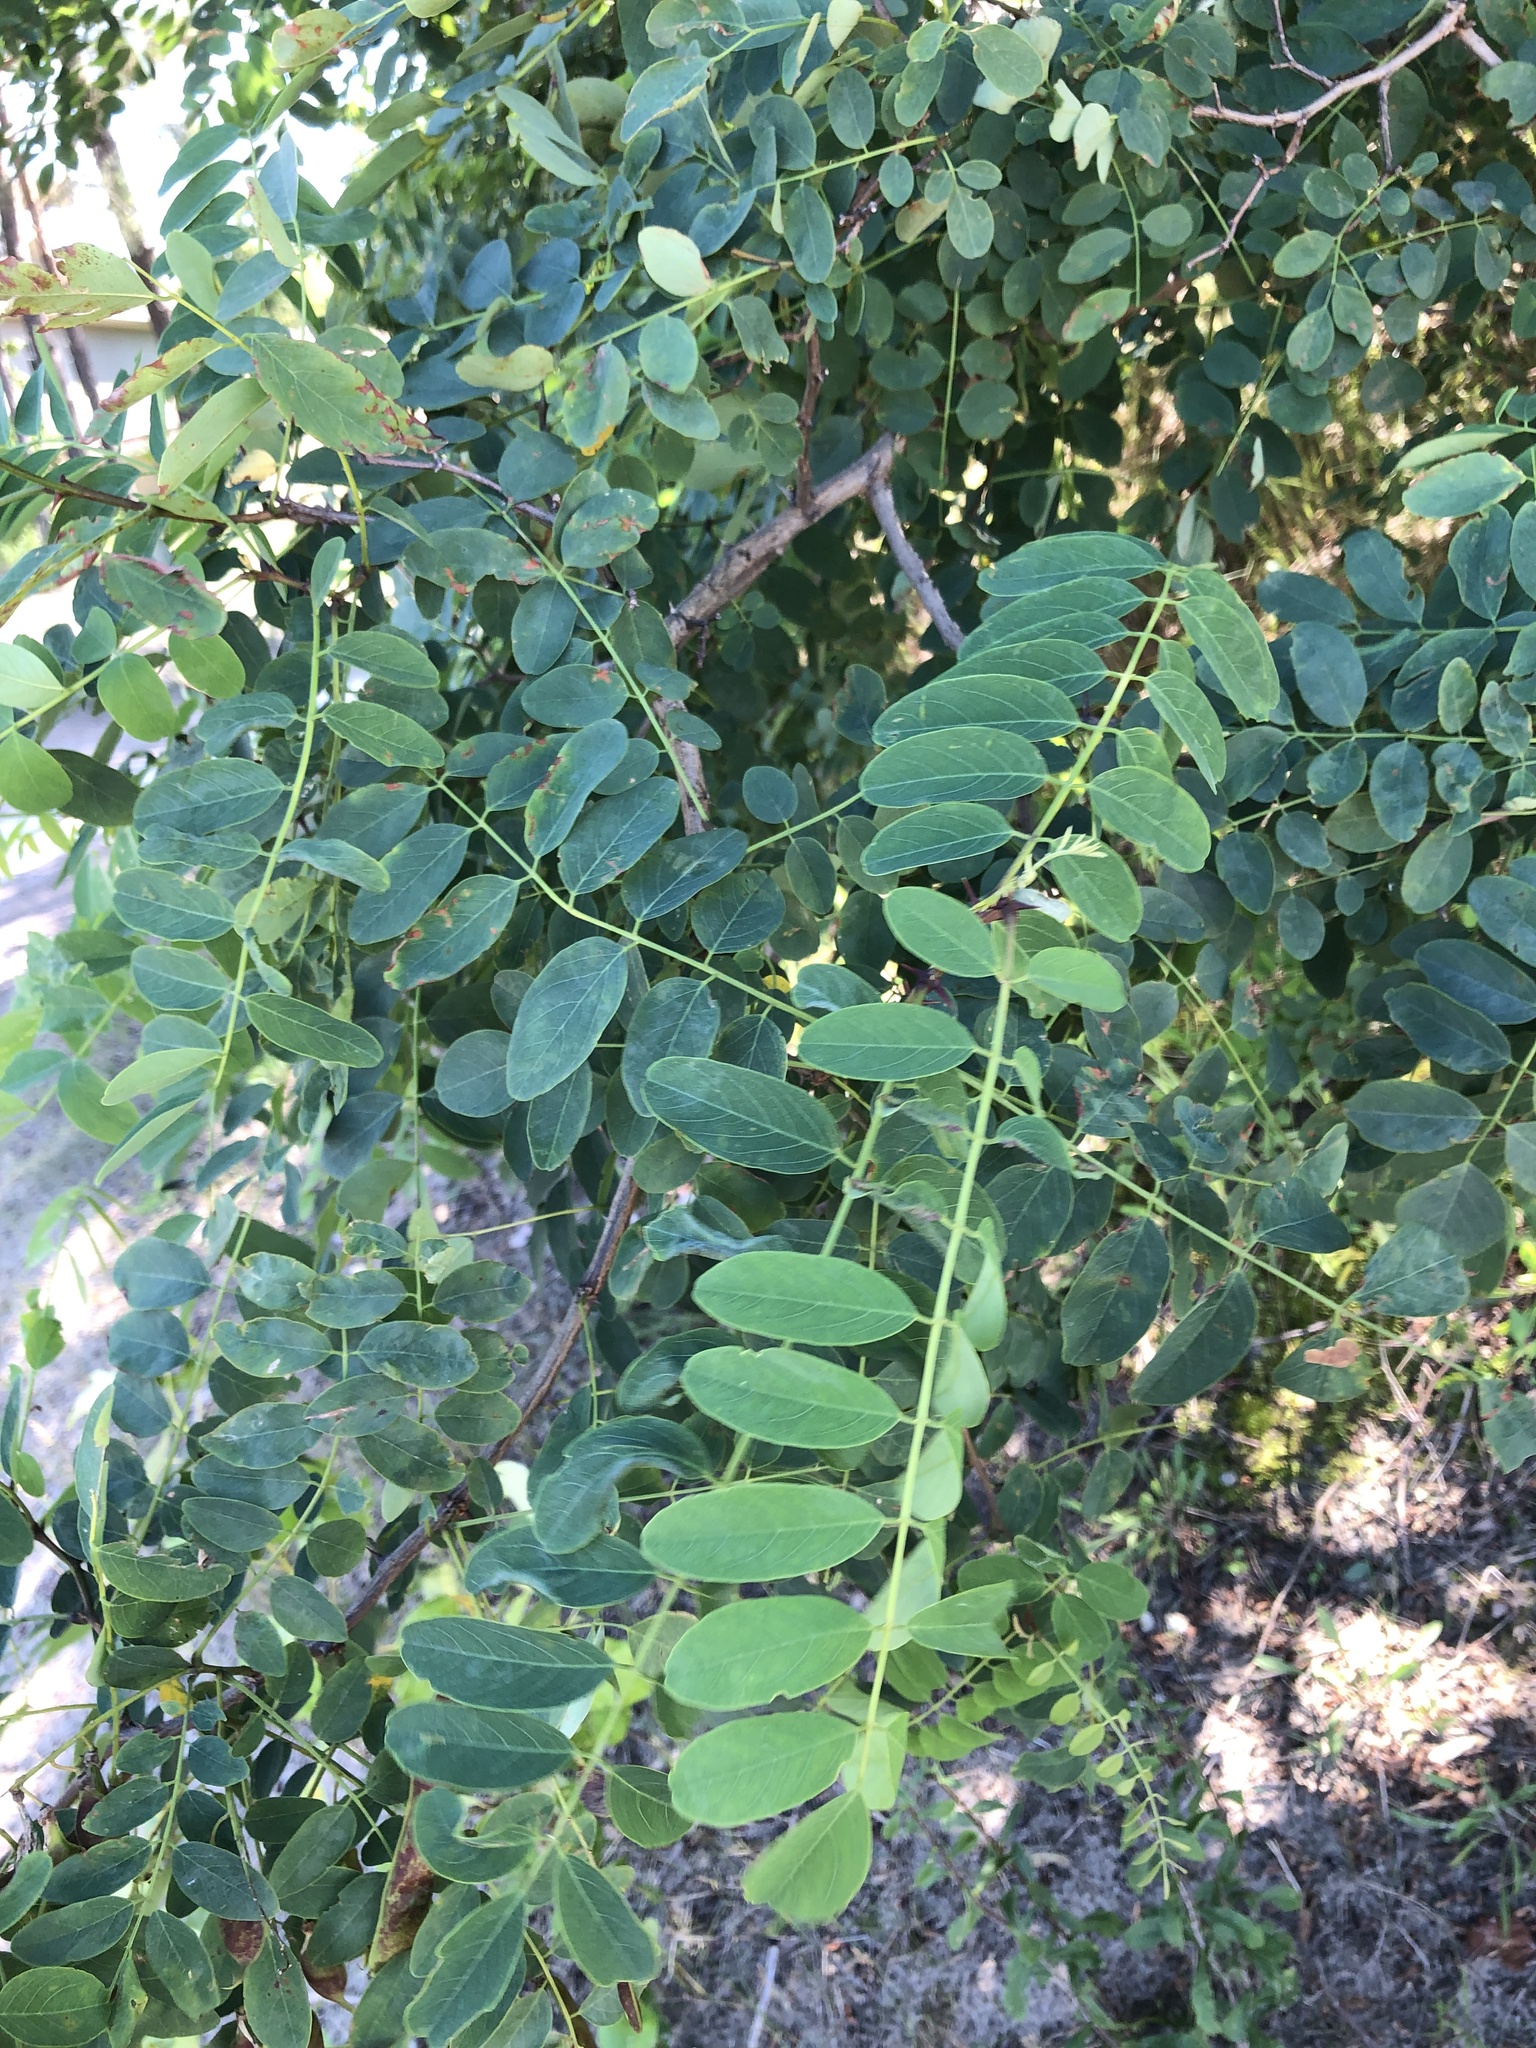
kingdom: Plantae
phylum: Tracheophyta
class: Magnoliopsida
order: Fabales
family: Fabaceae
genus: Robinia
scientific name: Robinia pseudoacacia
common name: Black locust
